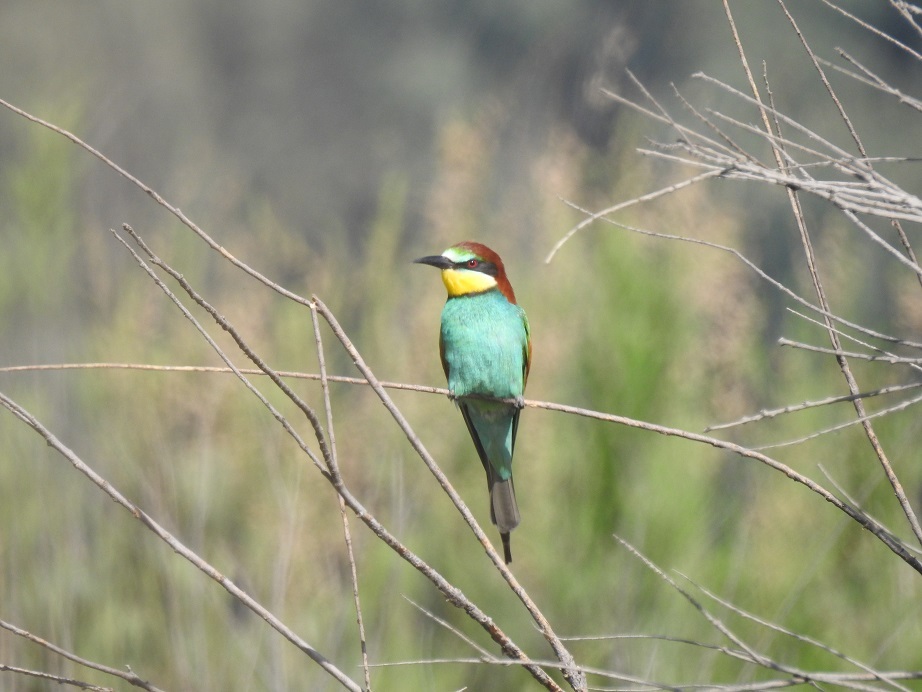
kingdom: Animalia
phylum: Chordata
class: Aves
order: Coraciiformes
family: Meropidae
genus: Merops
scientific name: Merops apiaster
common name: European bee-eater
